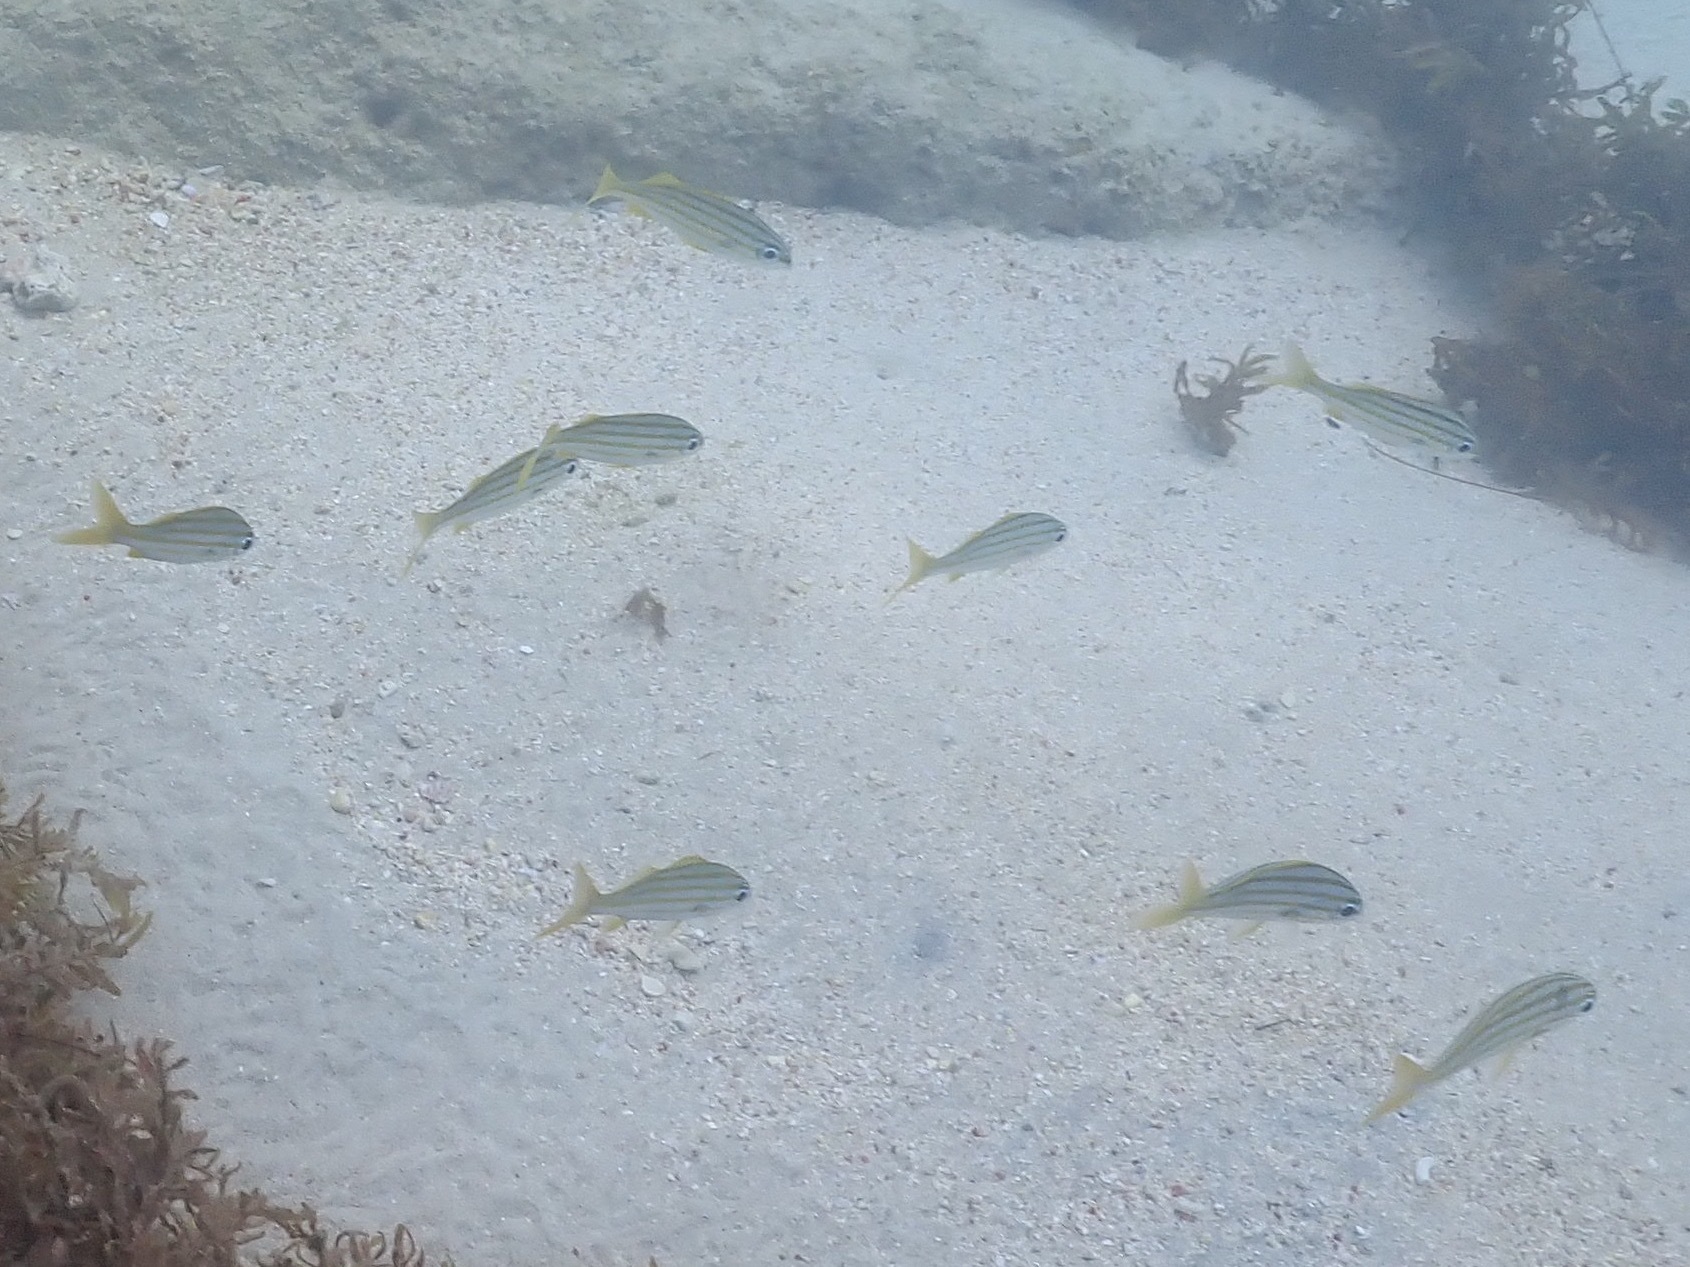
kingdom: Animalia
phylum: Chordata
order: Perciformes
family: Haemulidae
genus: Haemulon
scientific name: Haemulon chrysargyreum
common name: Smallmouth grunt
